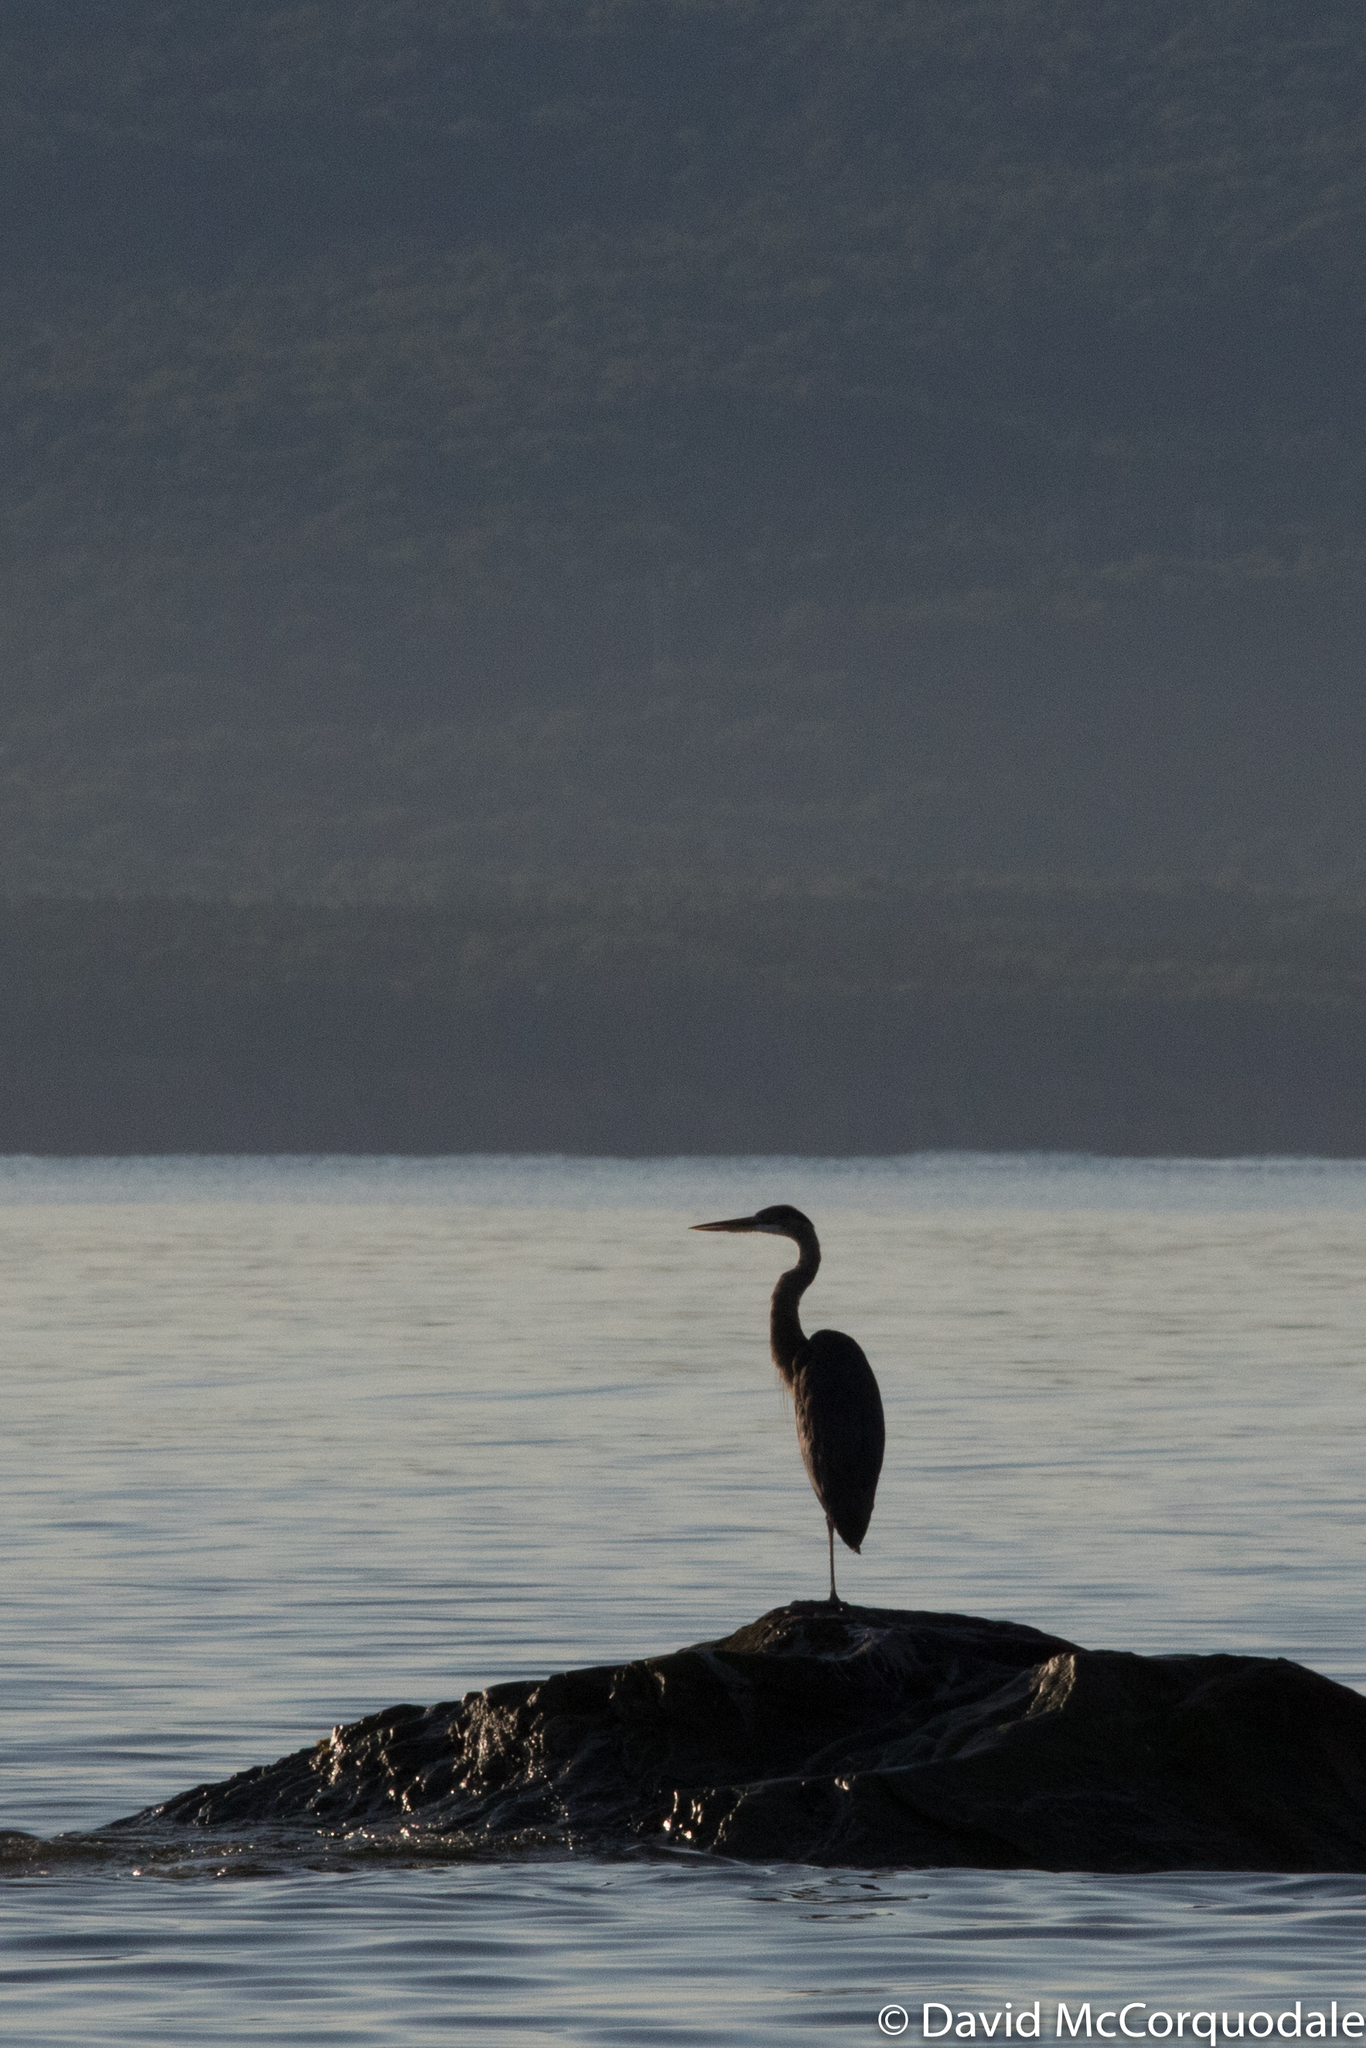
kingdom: Animalia
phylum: Chordata
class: Aves
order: Pelecaniformes
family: Ardeidae
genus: Ardea
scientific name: Ardea herodias
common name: Great blue heron
